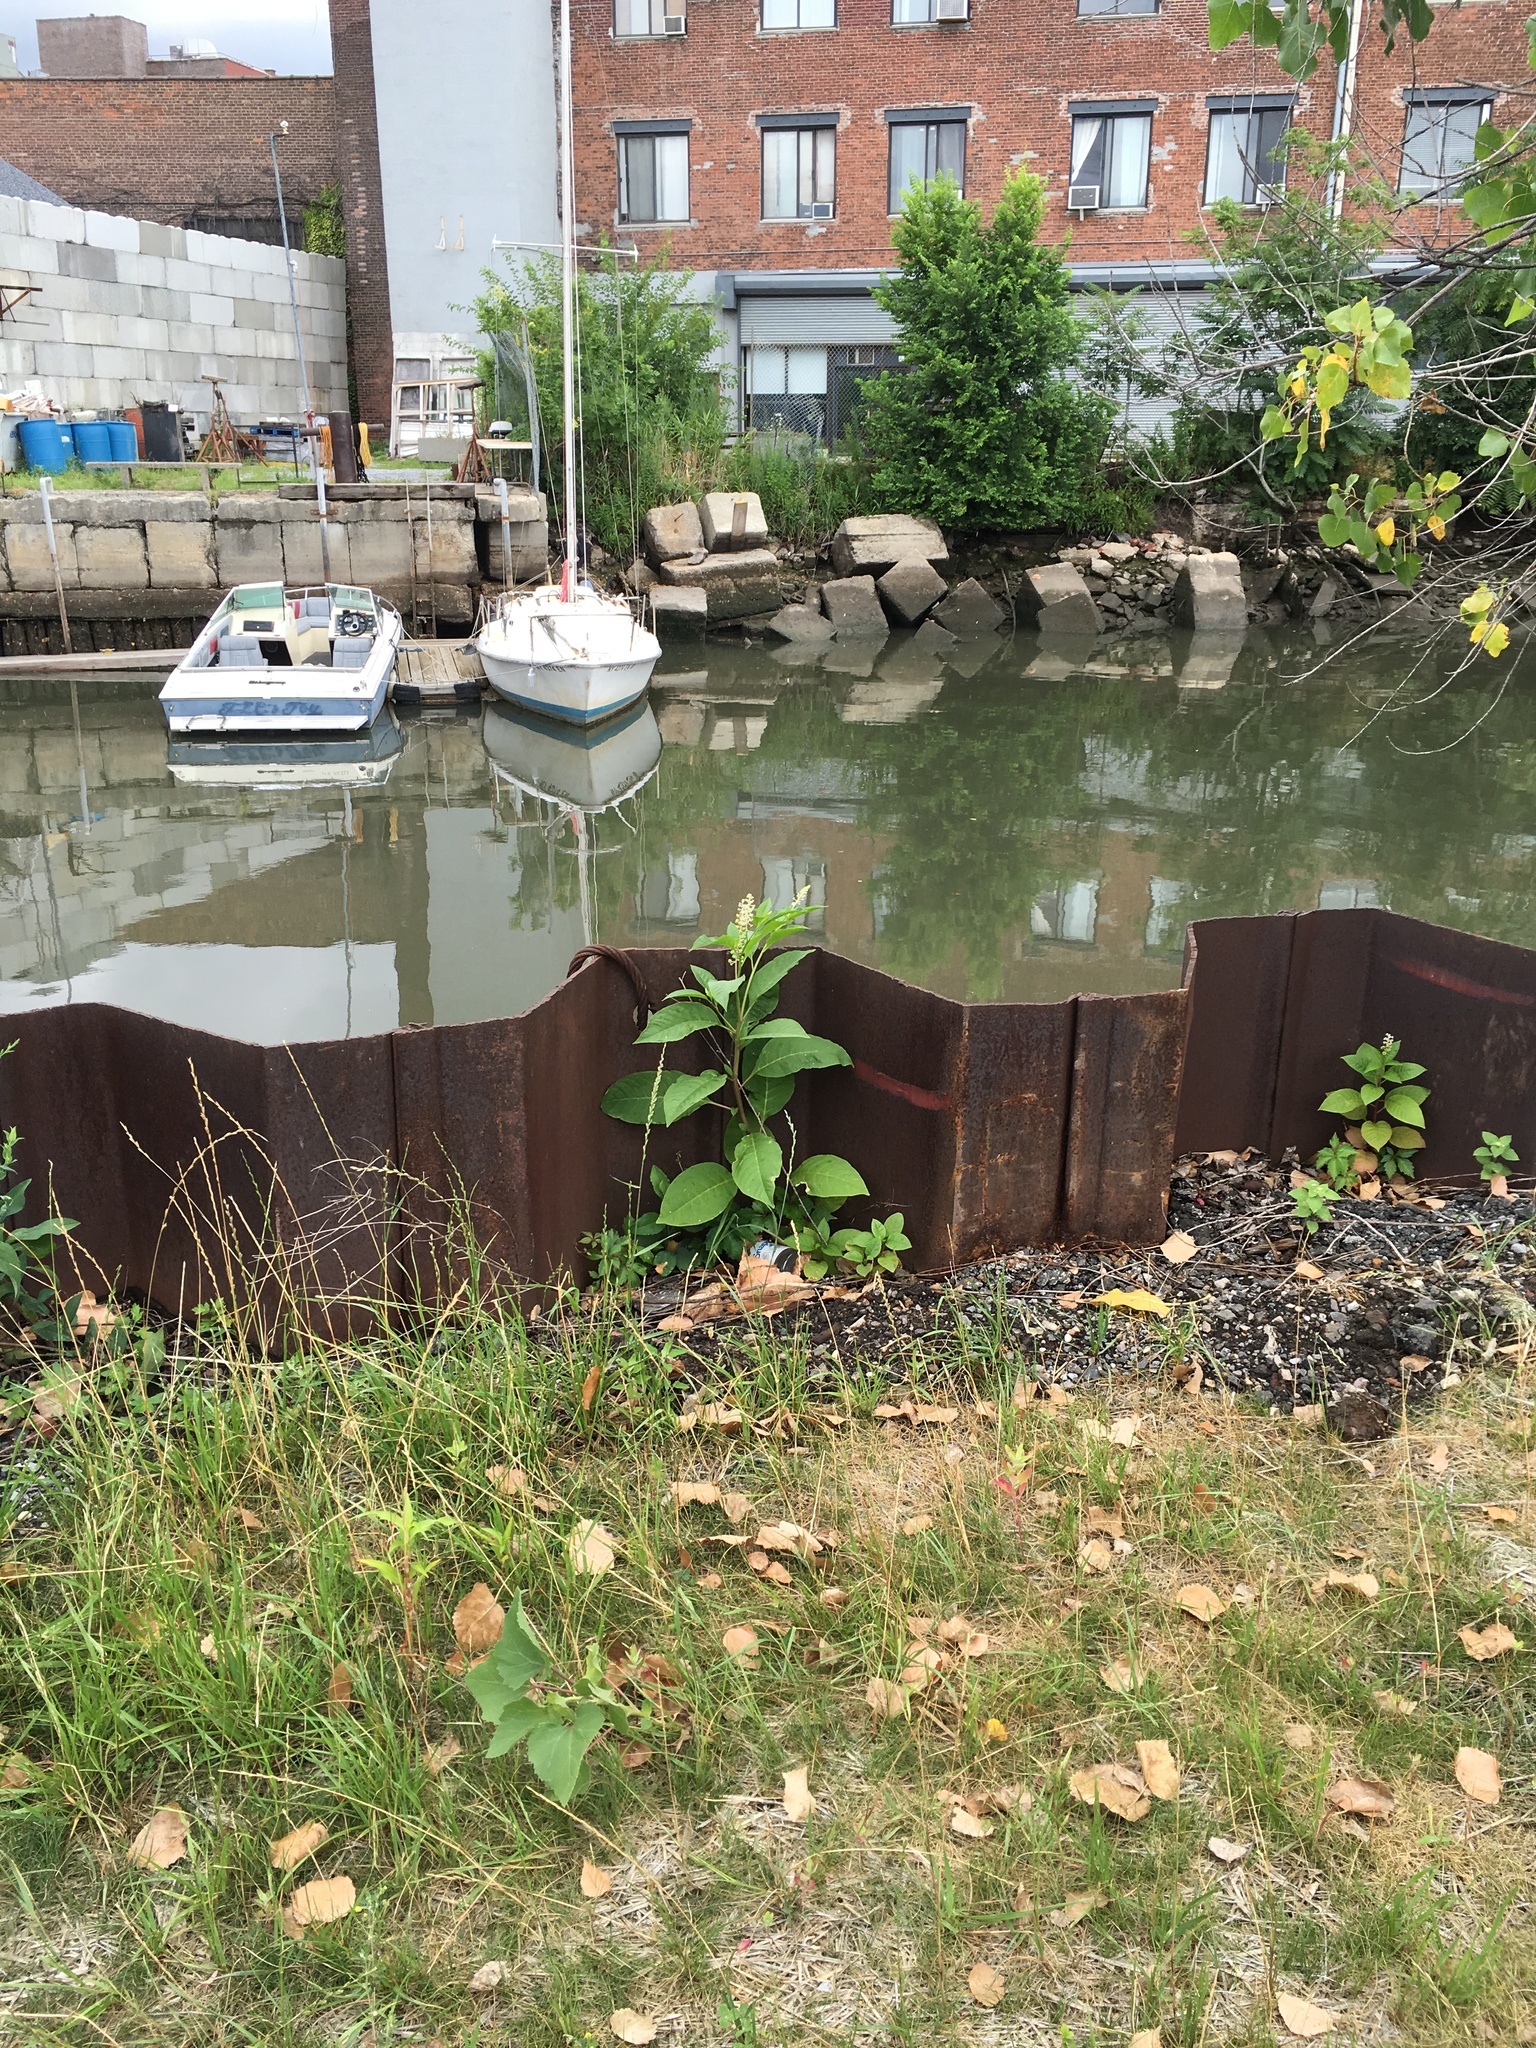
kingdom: Plantae
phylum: Tracheophyta
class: Magnoliopsida
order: Caryophyllales
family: Phytolaccaceae
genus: Phytolacca
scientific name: Phytolacca americana
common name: American pokeweed
